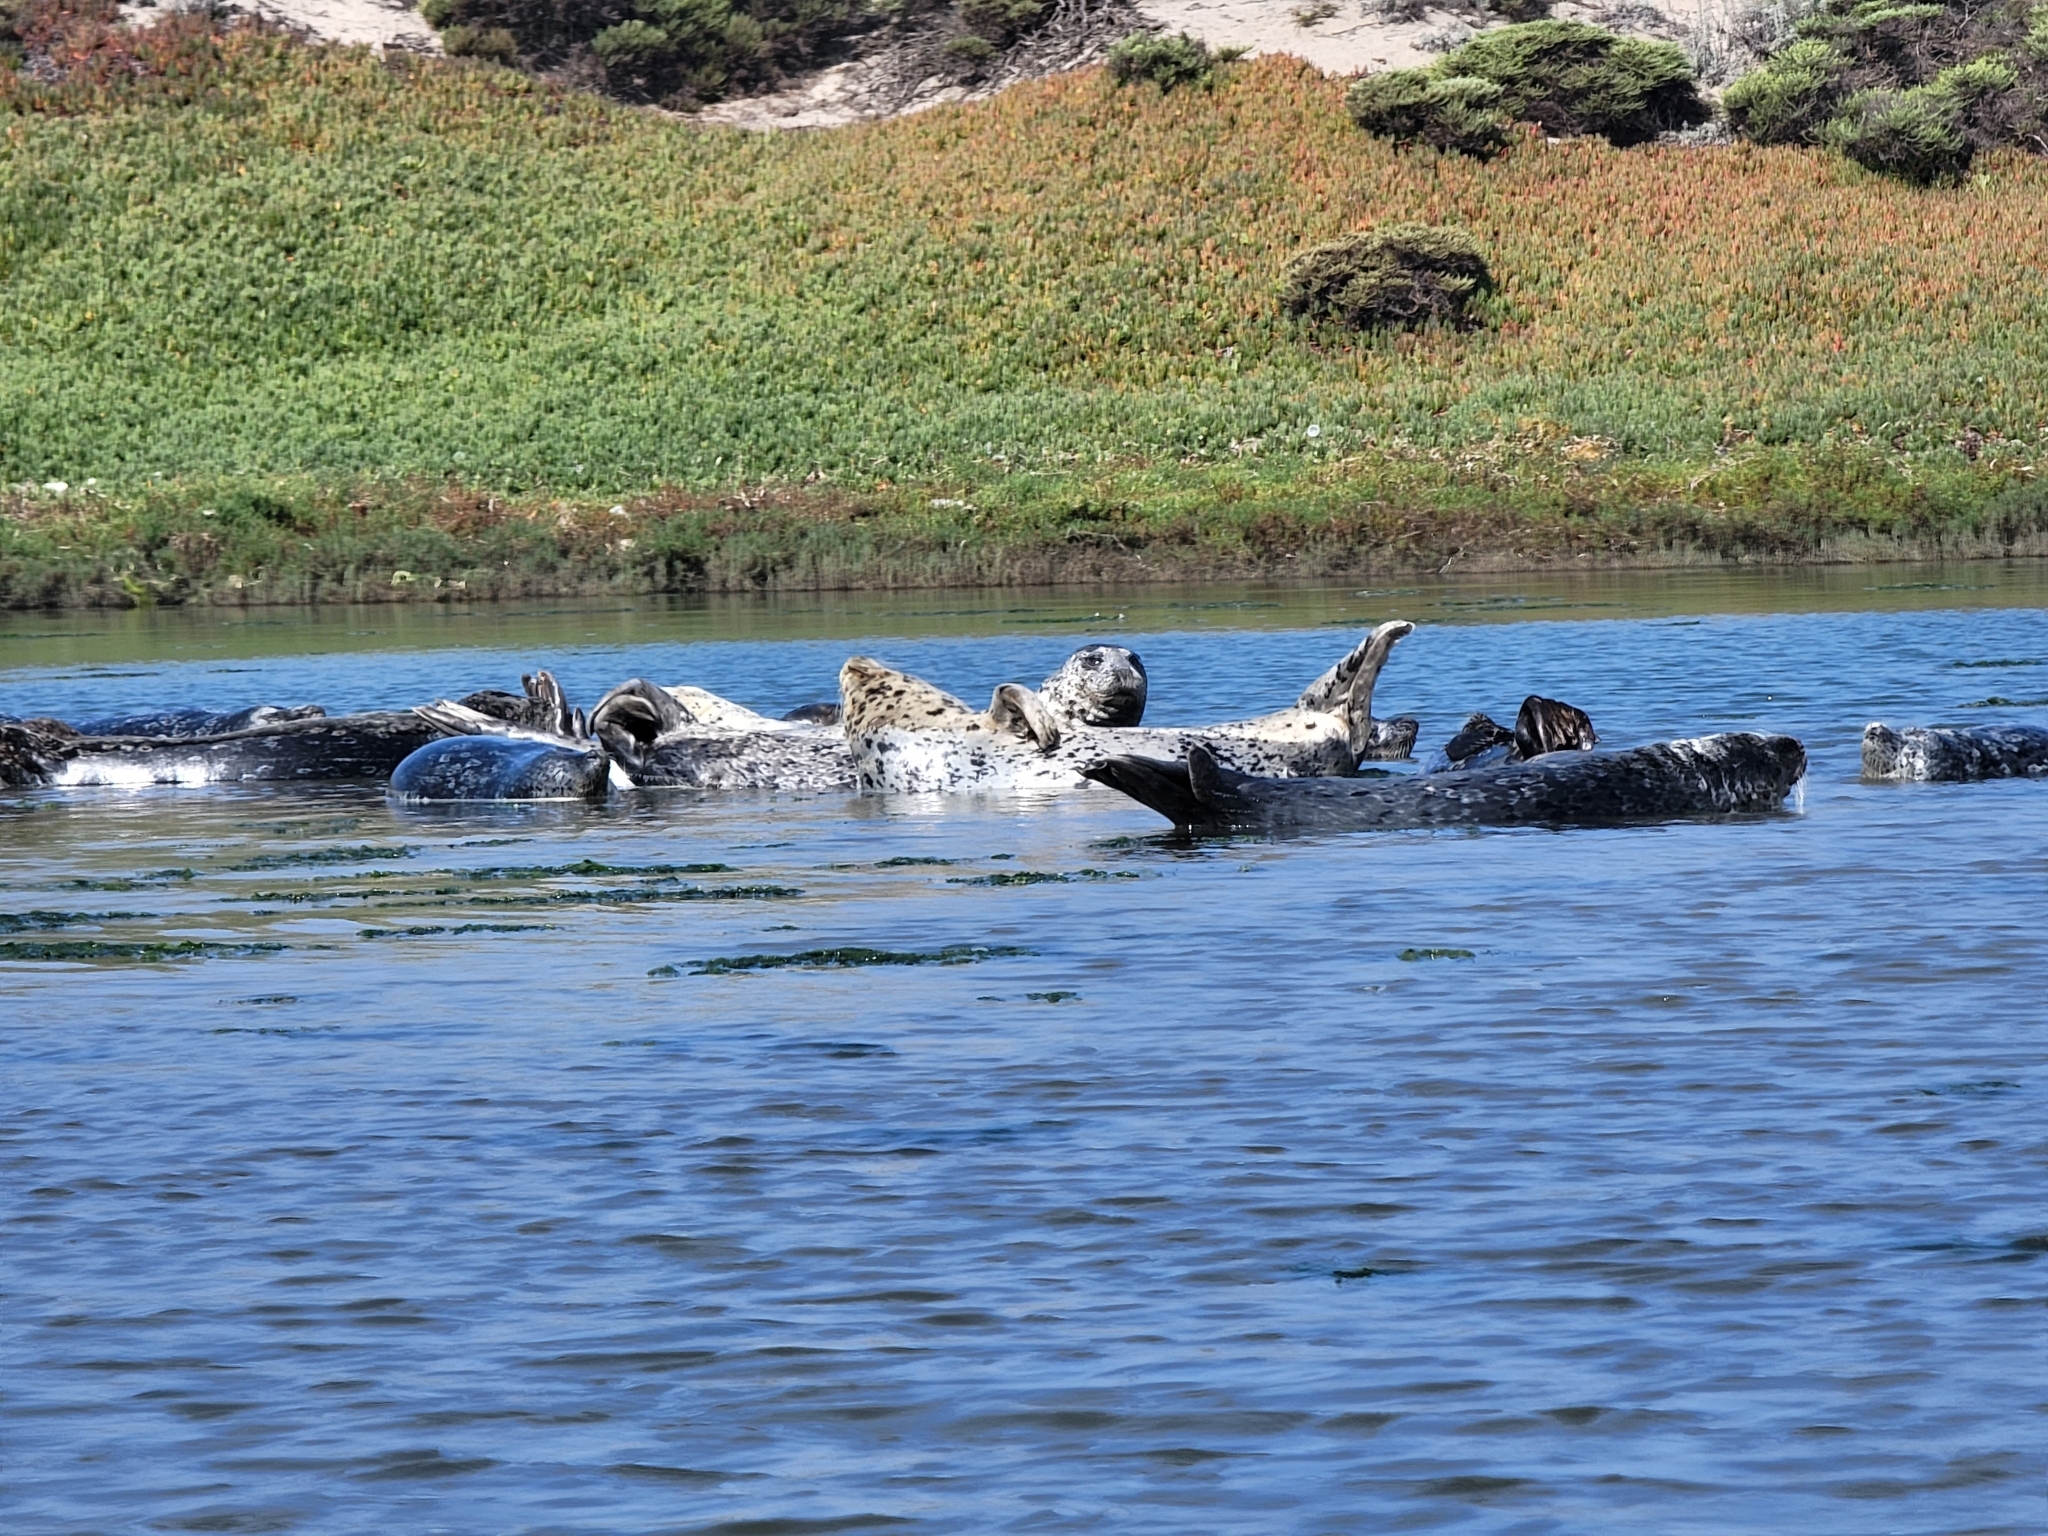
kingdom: Animalia
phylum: Chordata
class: Mammalia
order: Carnivora
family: Phocidae
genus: Phoca
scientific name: Phoca vitulina
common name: Harbor seal
